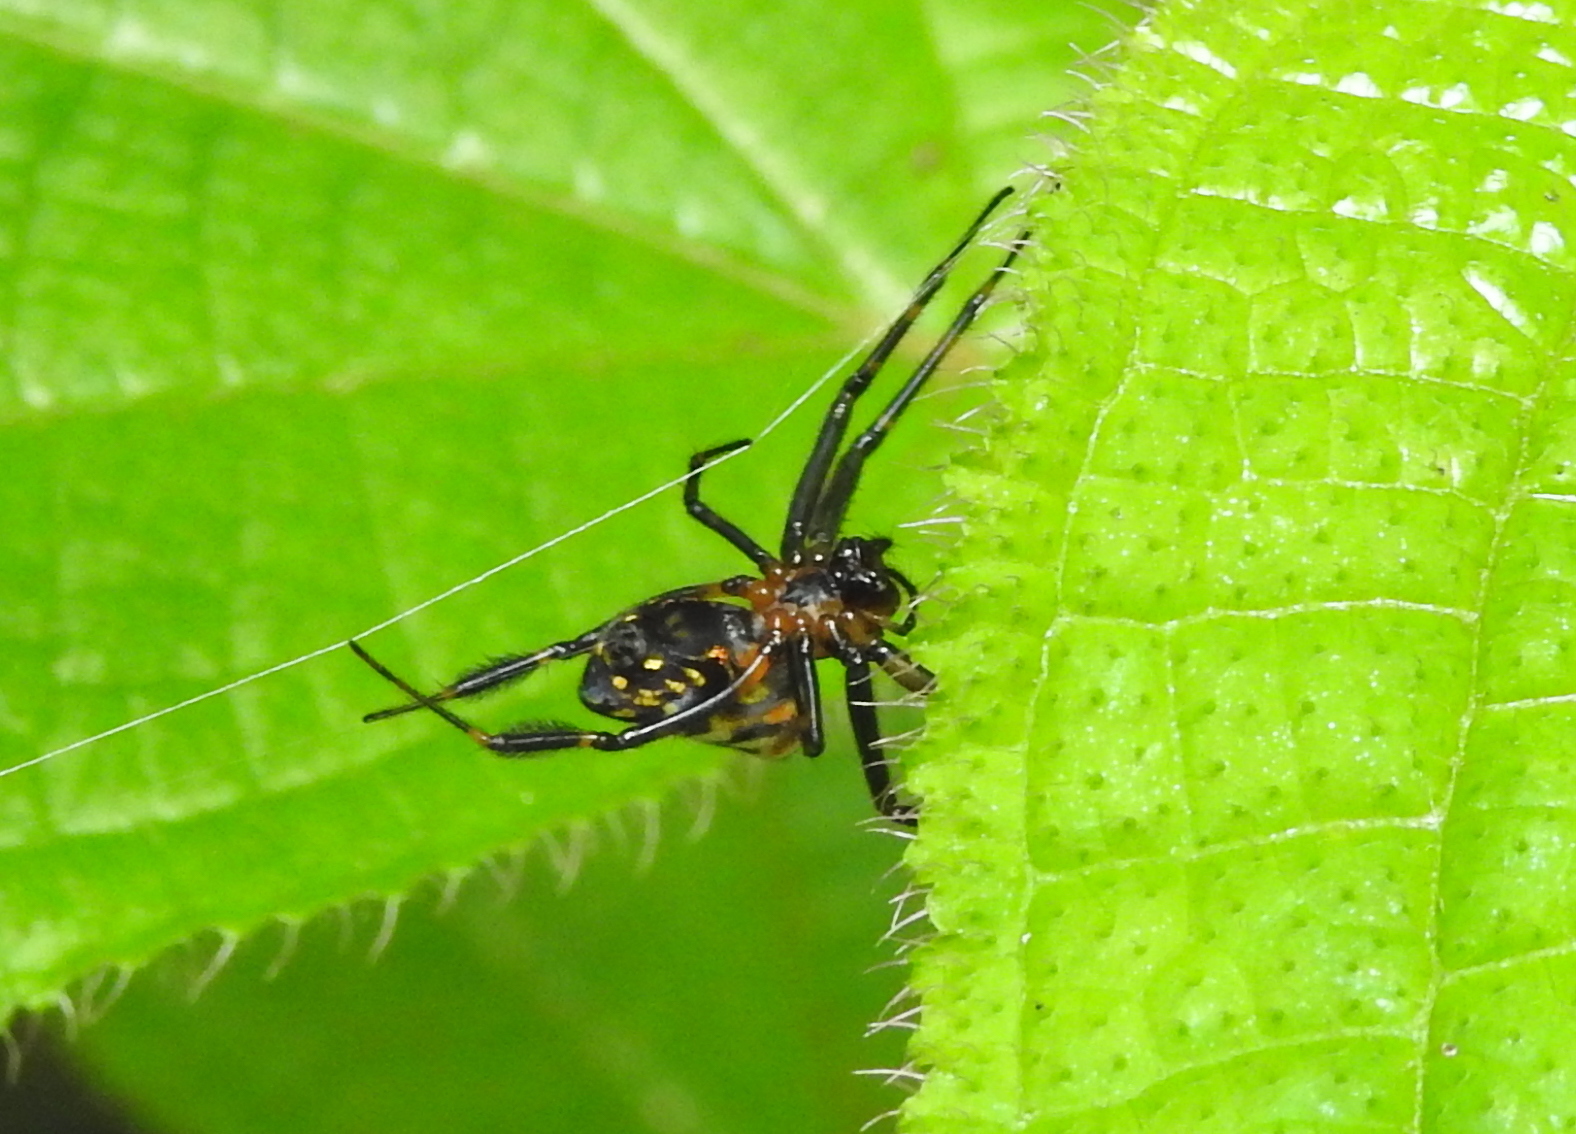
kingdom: Animalia
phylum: Arthropoda
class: Arachnida
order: Araneae
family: Tetragnathidae
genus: Leucauge
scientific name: Leucauge fastigata
